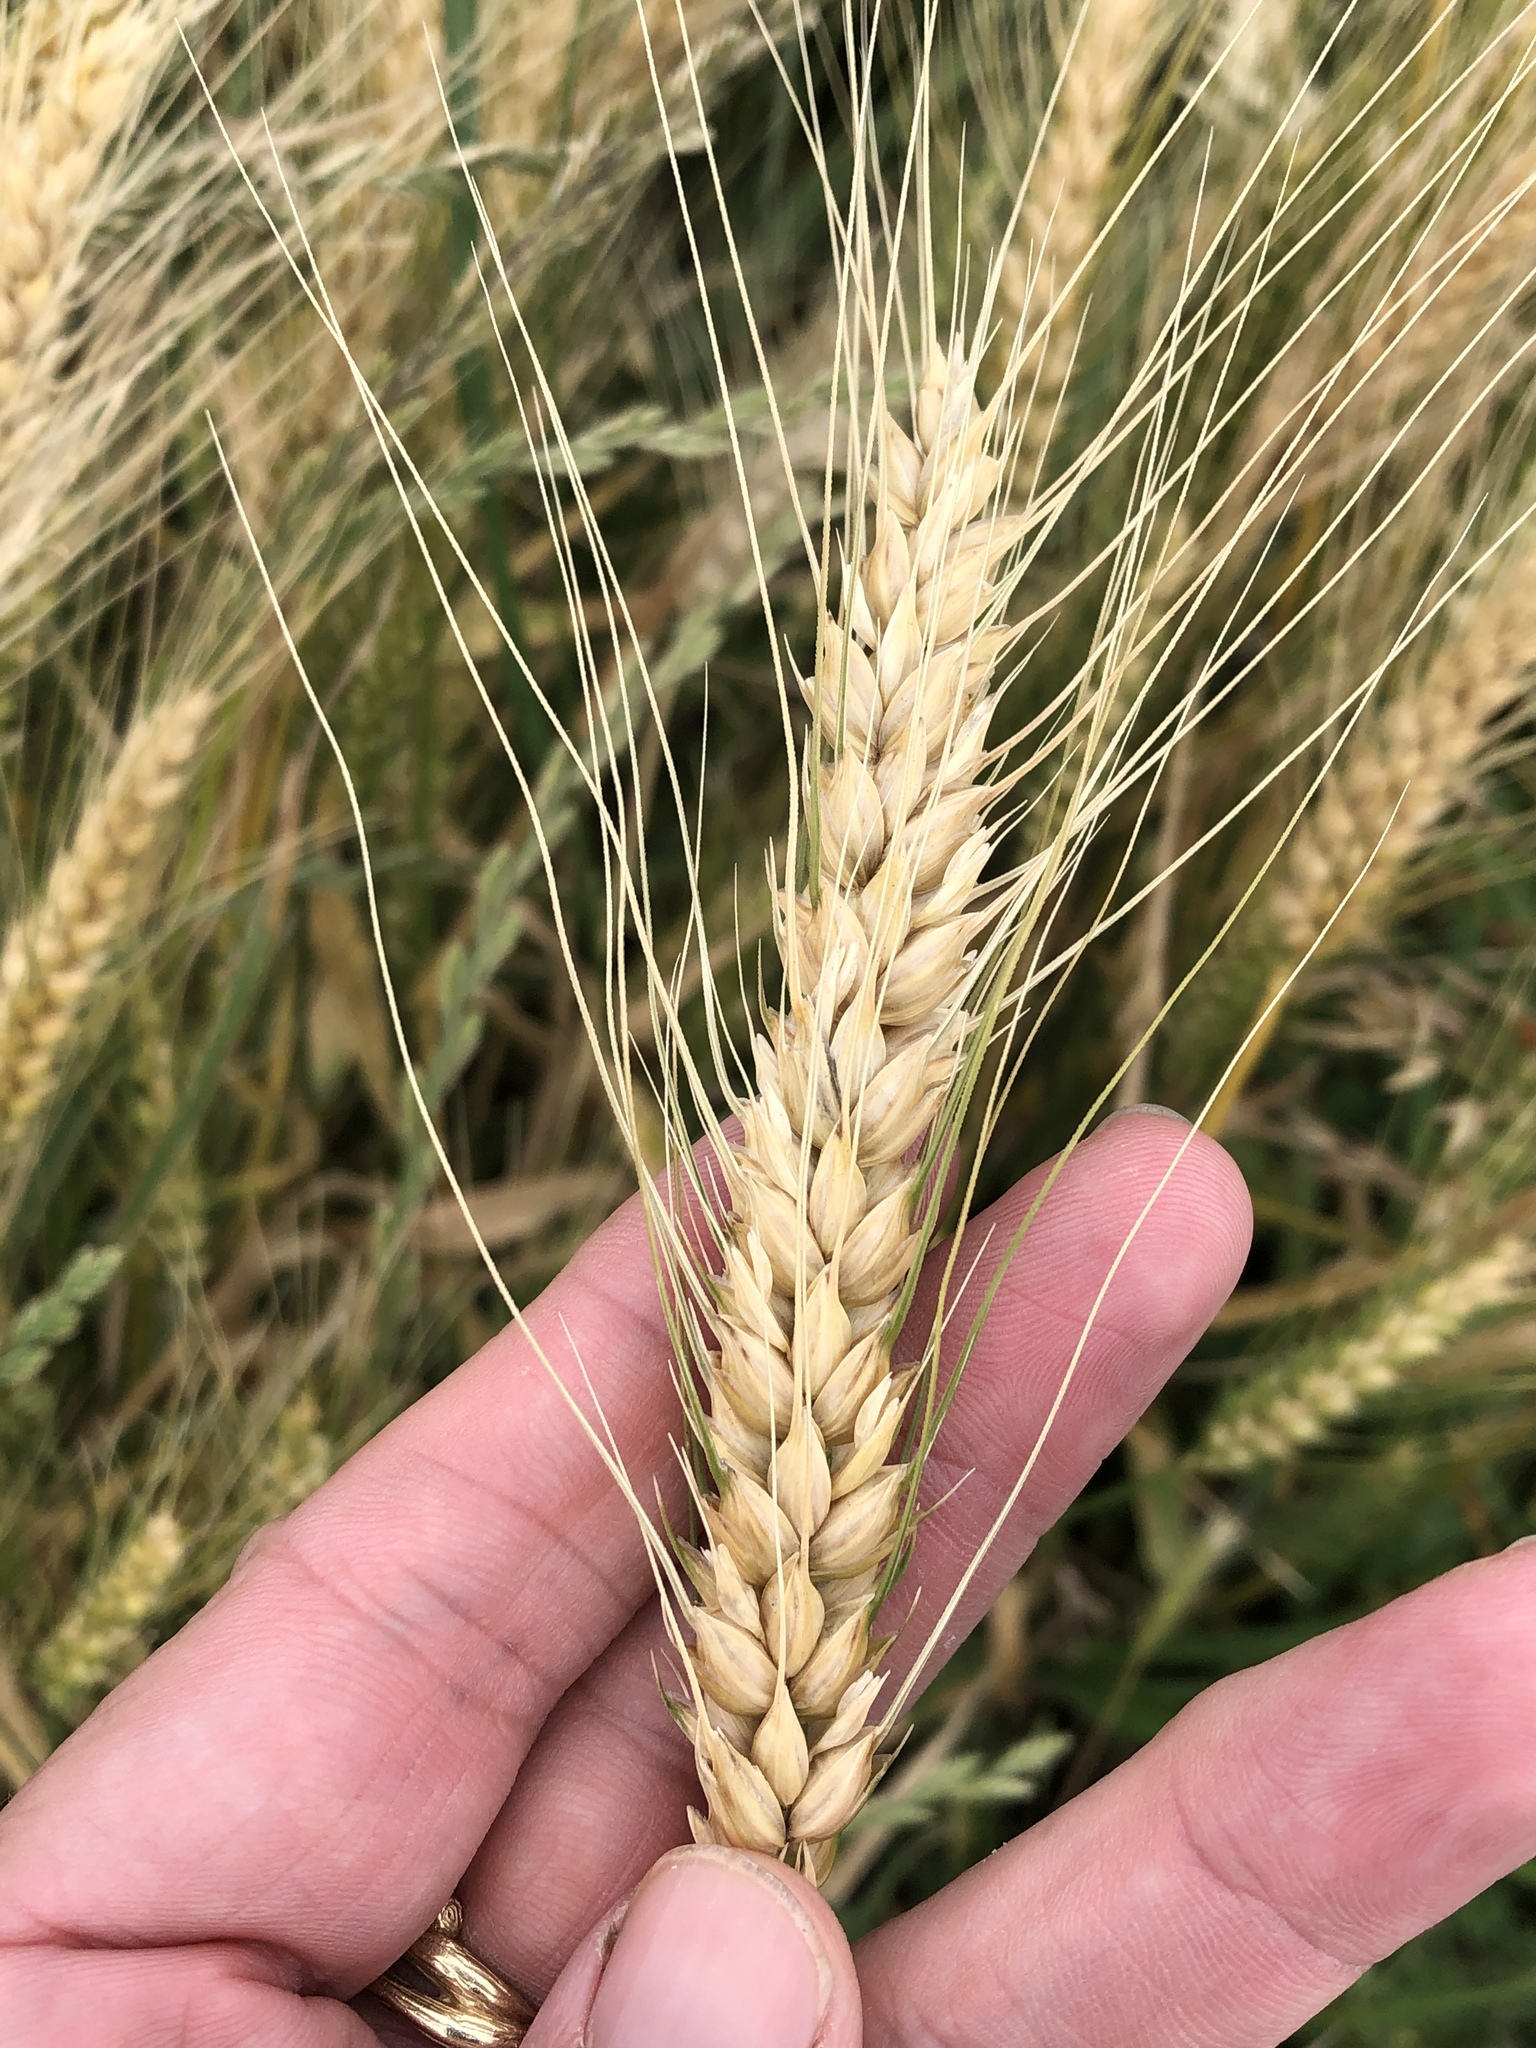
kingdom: Plantae
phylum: Tracheophyta
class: Liliopsida
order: Poales
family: Poaceae
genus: Triticum
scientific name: Triticum aestivum
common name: Common wheat
